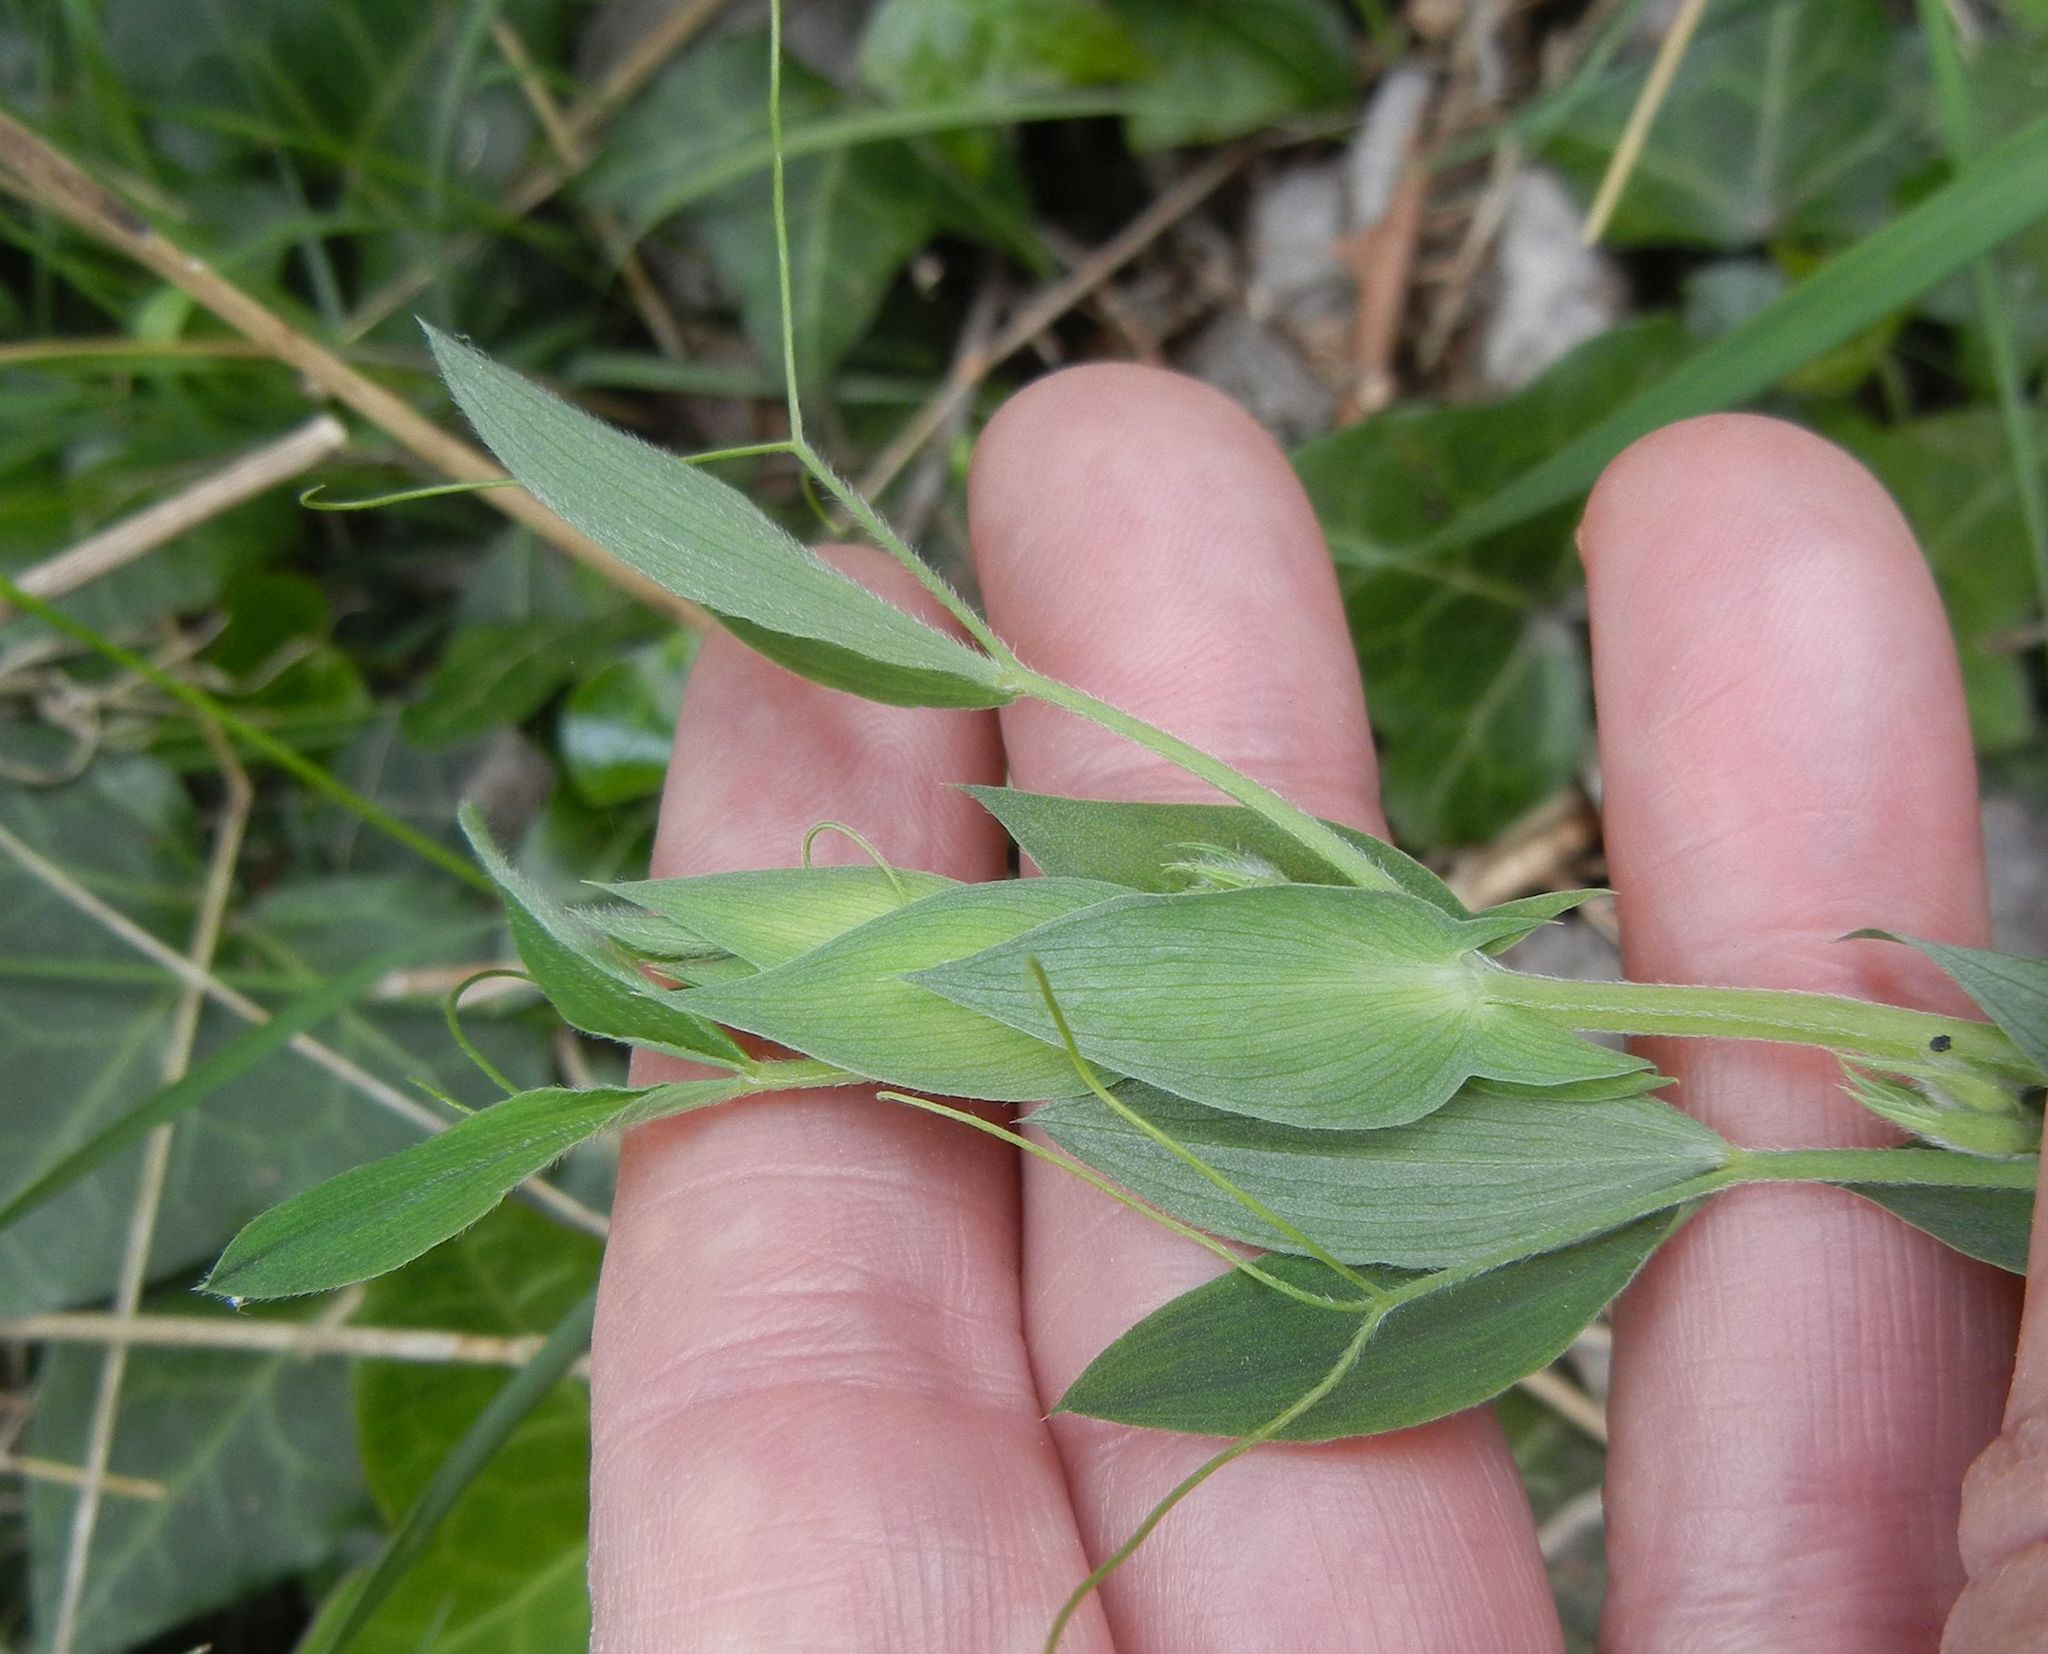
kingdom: Plantae
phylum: Tracheophyta
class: Magnoliopsida
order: Fabales
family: Fabaceae
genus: Lathyrus
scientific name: Lathyrus pratensis
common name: Meadow vetchling
